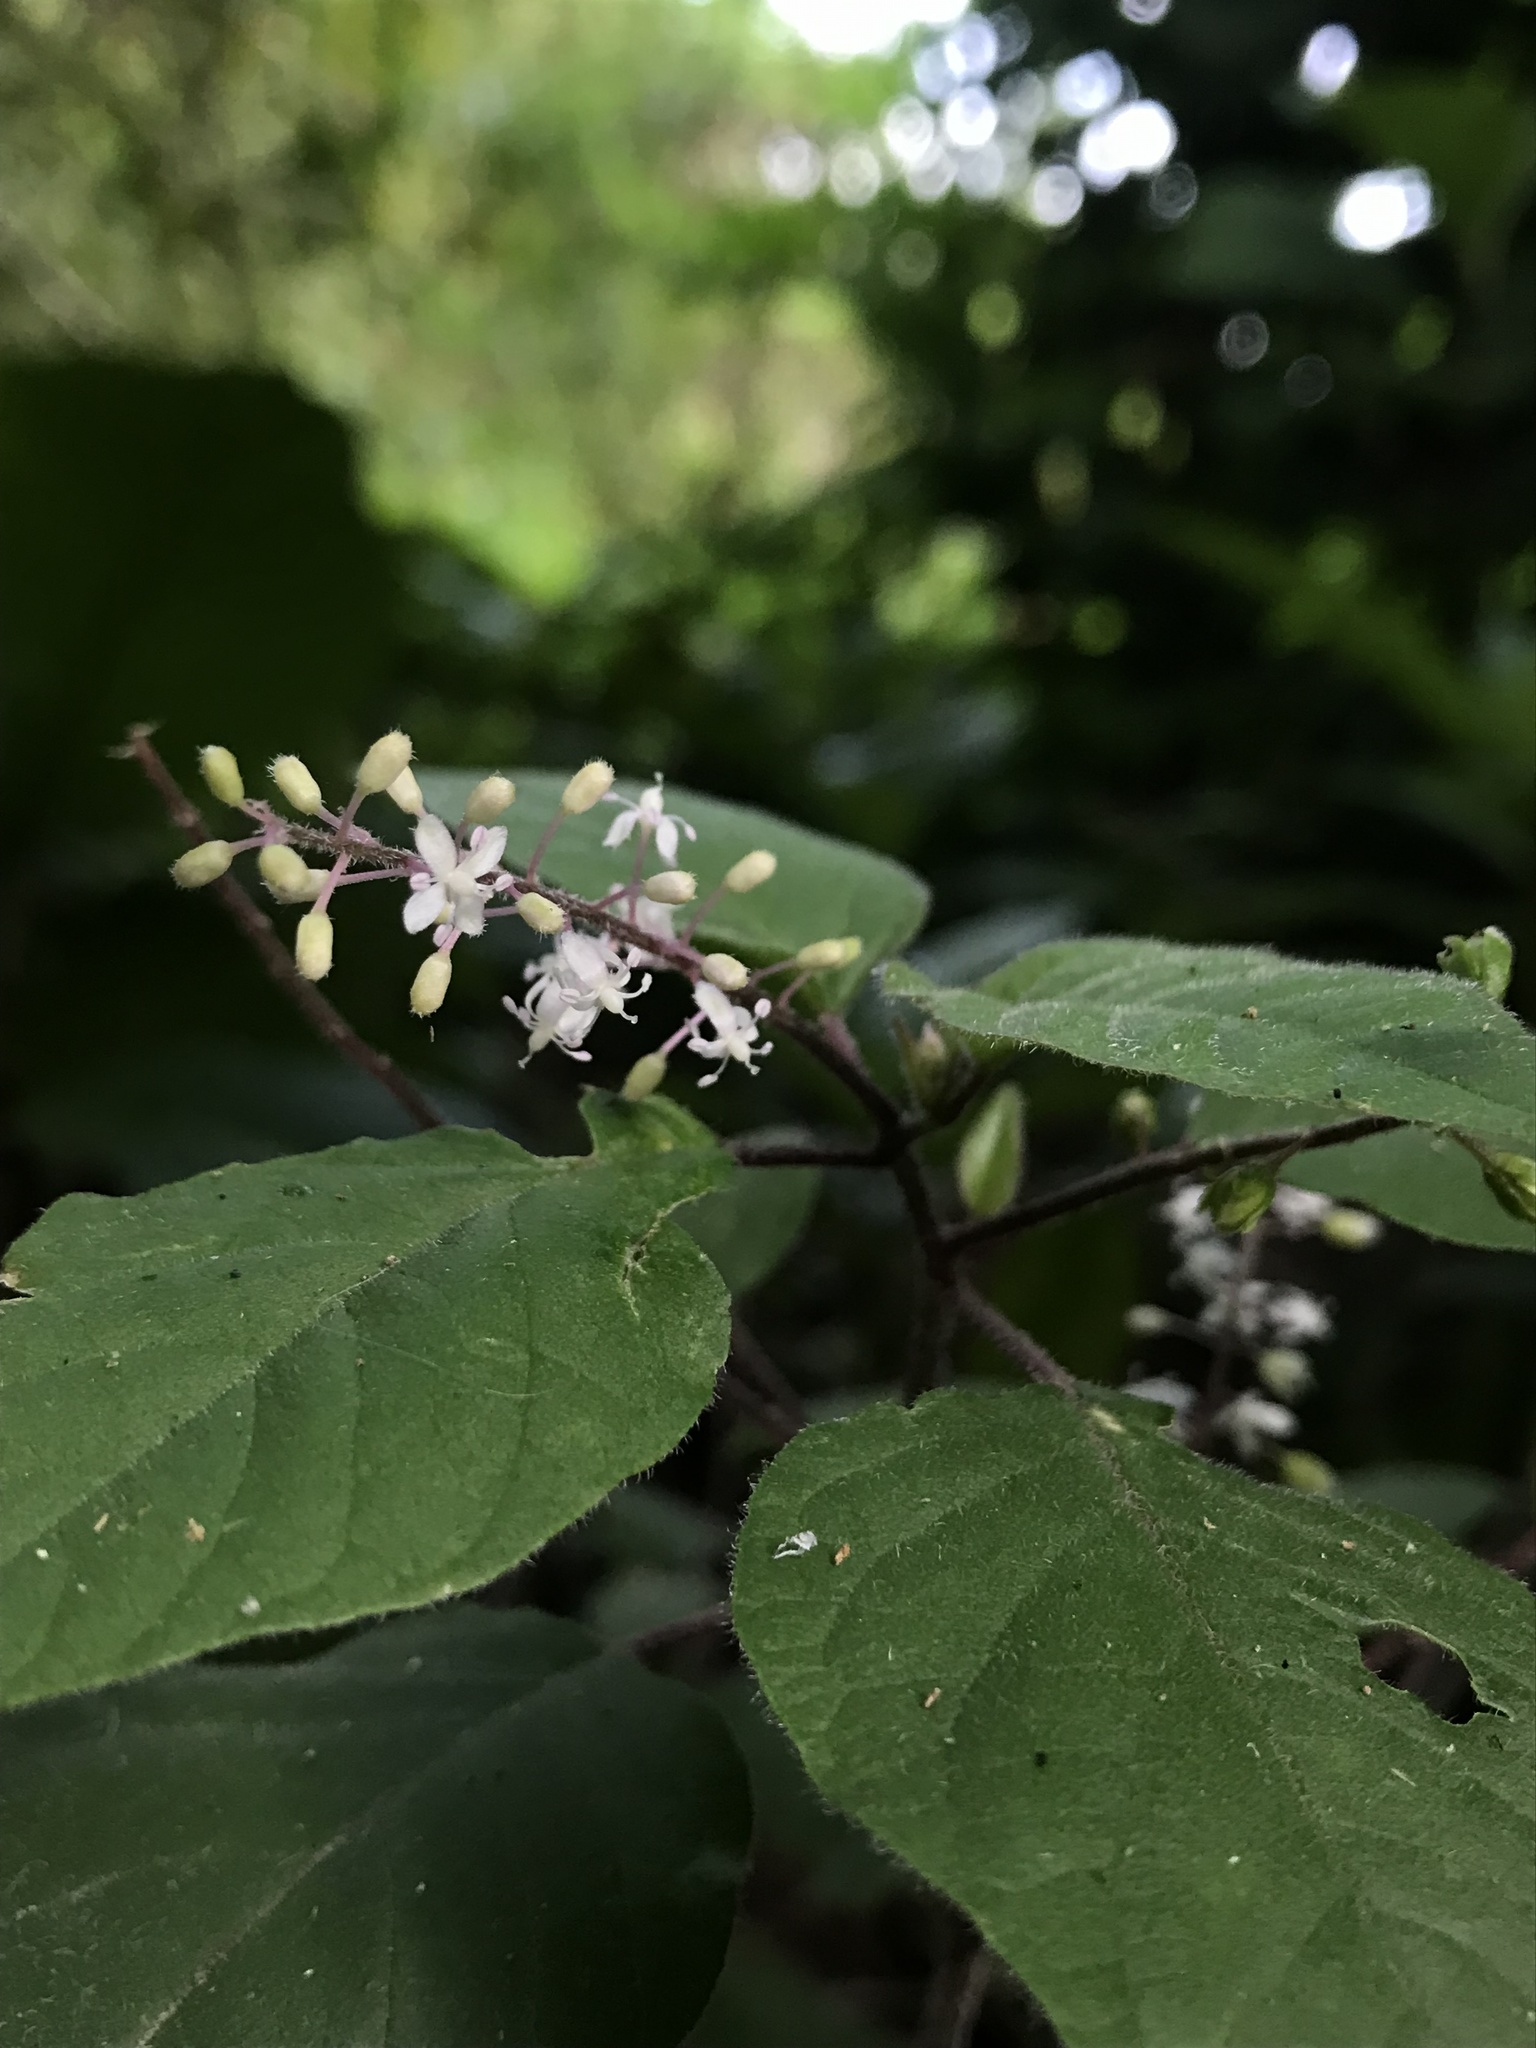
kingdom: Plantae
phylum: Tracheophyta
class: Magnoliopsida
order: Caryophyllales
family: Phytolaccaceae
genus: Rivina
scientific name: Rivina humilis
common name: Rougeplant
